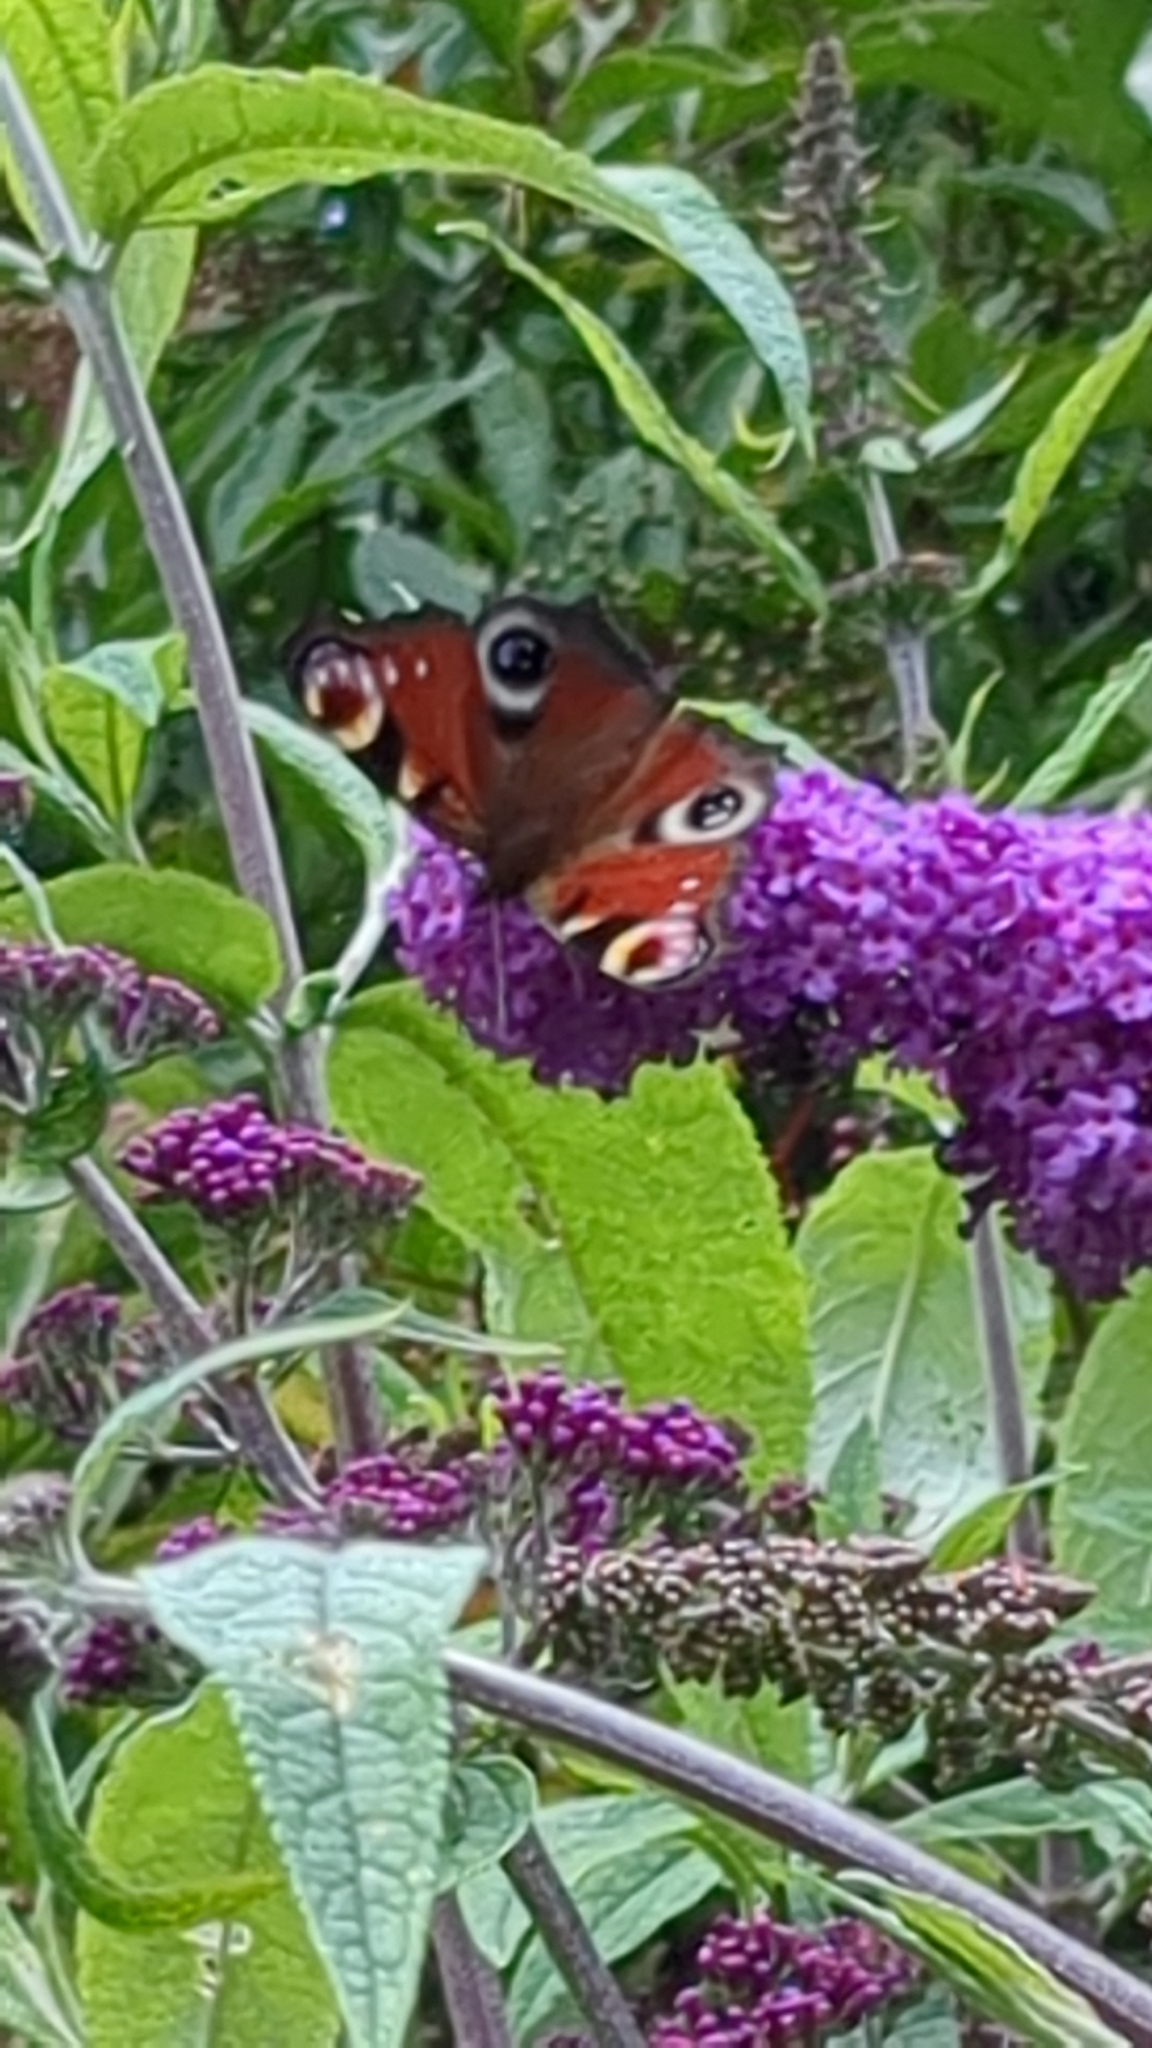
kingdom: Animalia
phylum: Arthropoda
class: Insecta
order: Lepidoptera
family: Nymphalidae
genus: Aglais
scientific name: Aglais io
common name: Peacock
